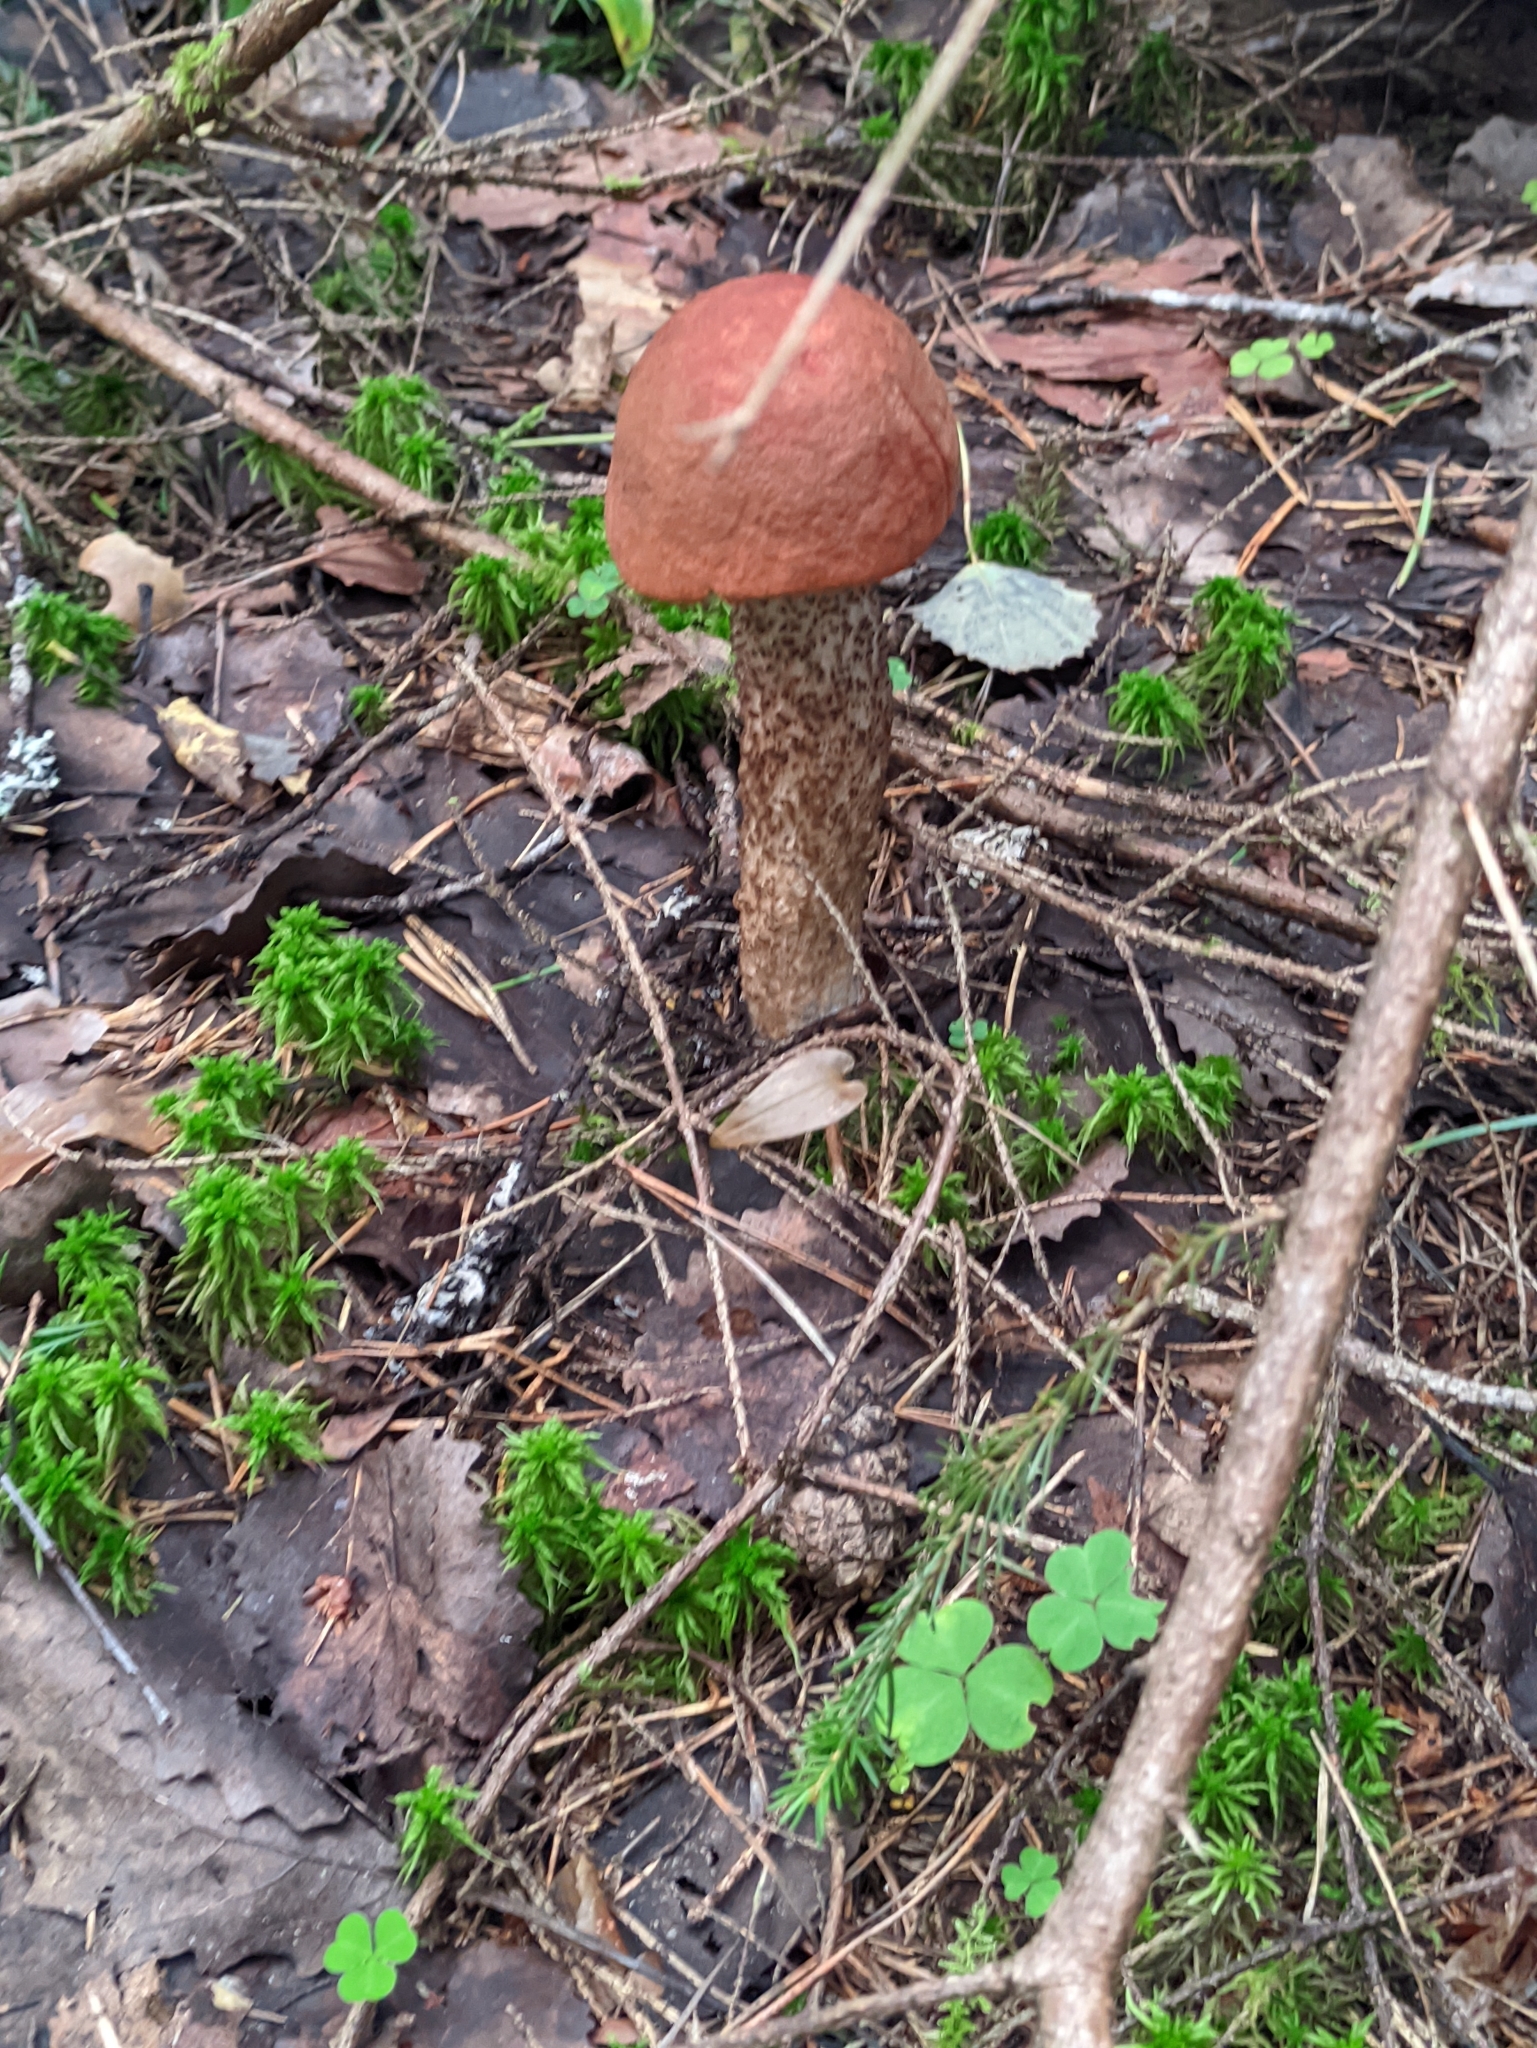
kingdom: Fungi
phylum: Basidiomycota
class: Agaricomycetes
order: Boletales
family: Boletaceae
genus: Leccinum
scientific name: Leccinum aurantiacum
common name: Orange bolete
